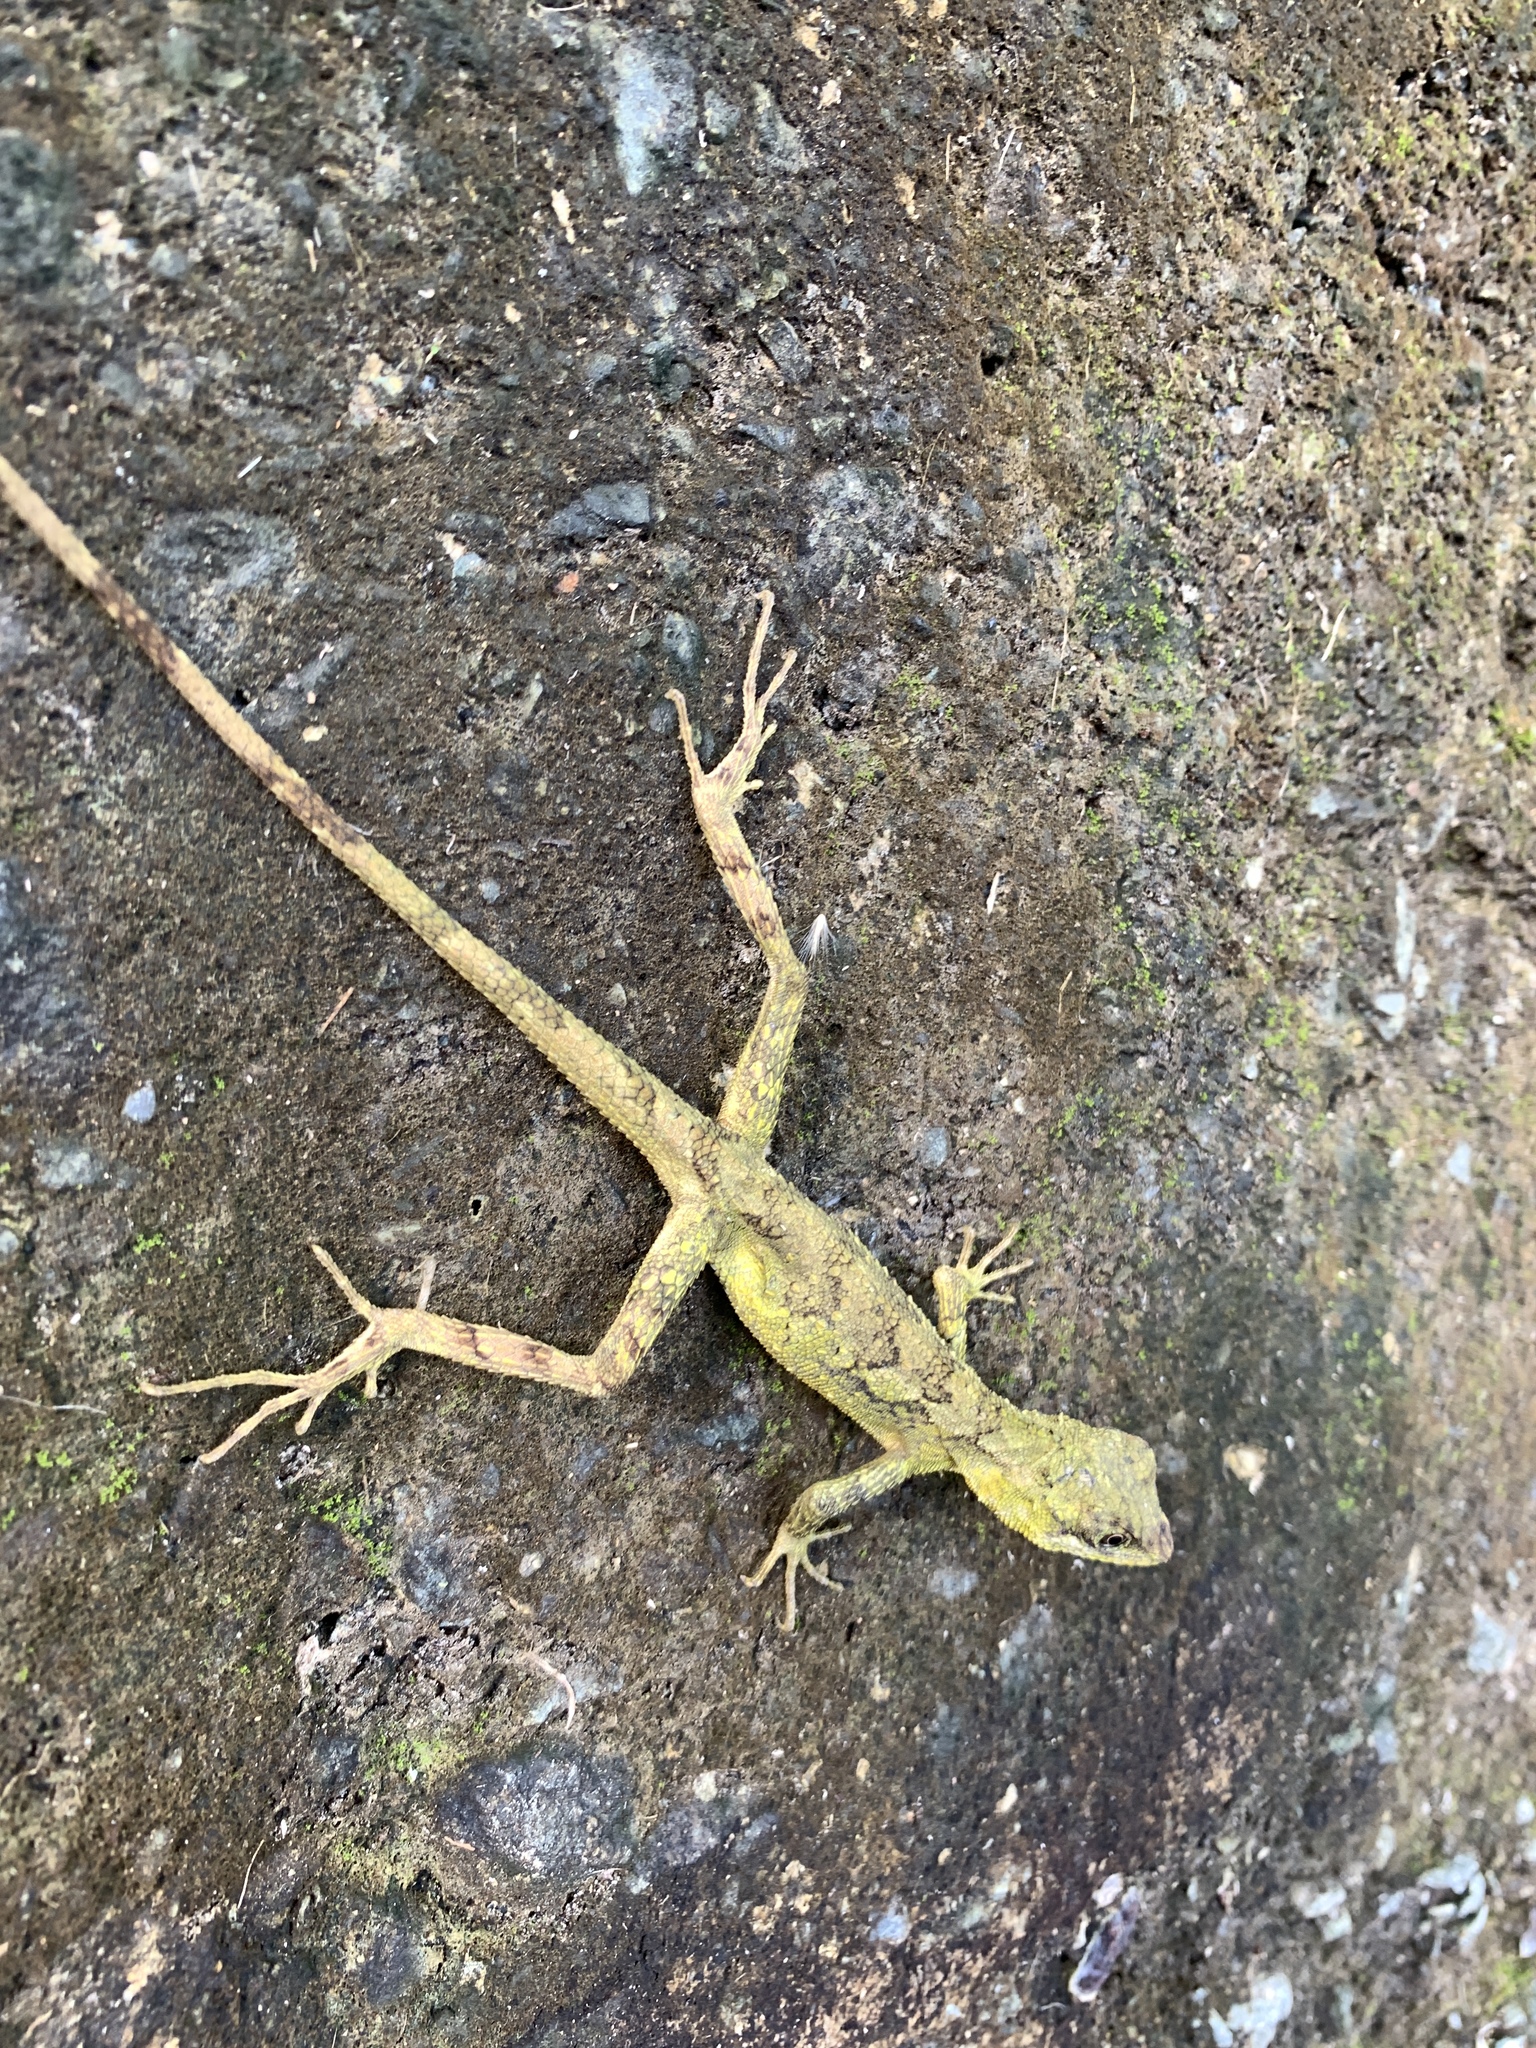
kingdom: Animalia
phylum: Chordata
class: Squamata
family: Agamidae
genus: Diploderma
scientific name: Diploderma swinhonis
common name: Taiwan japalure
